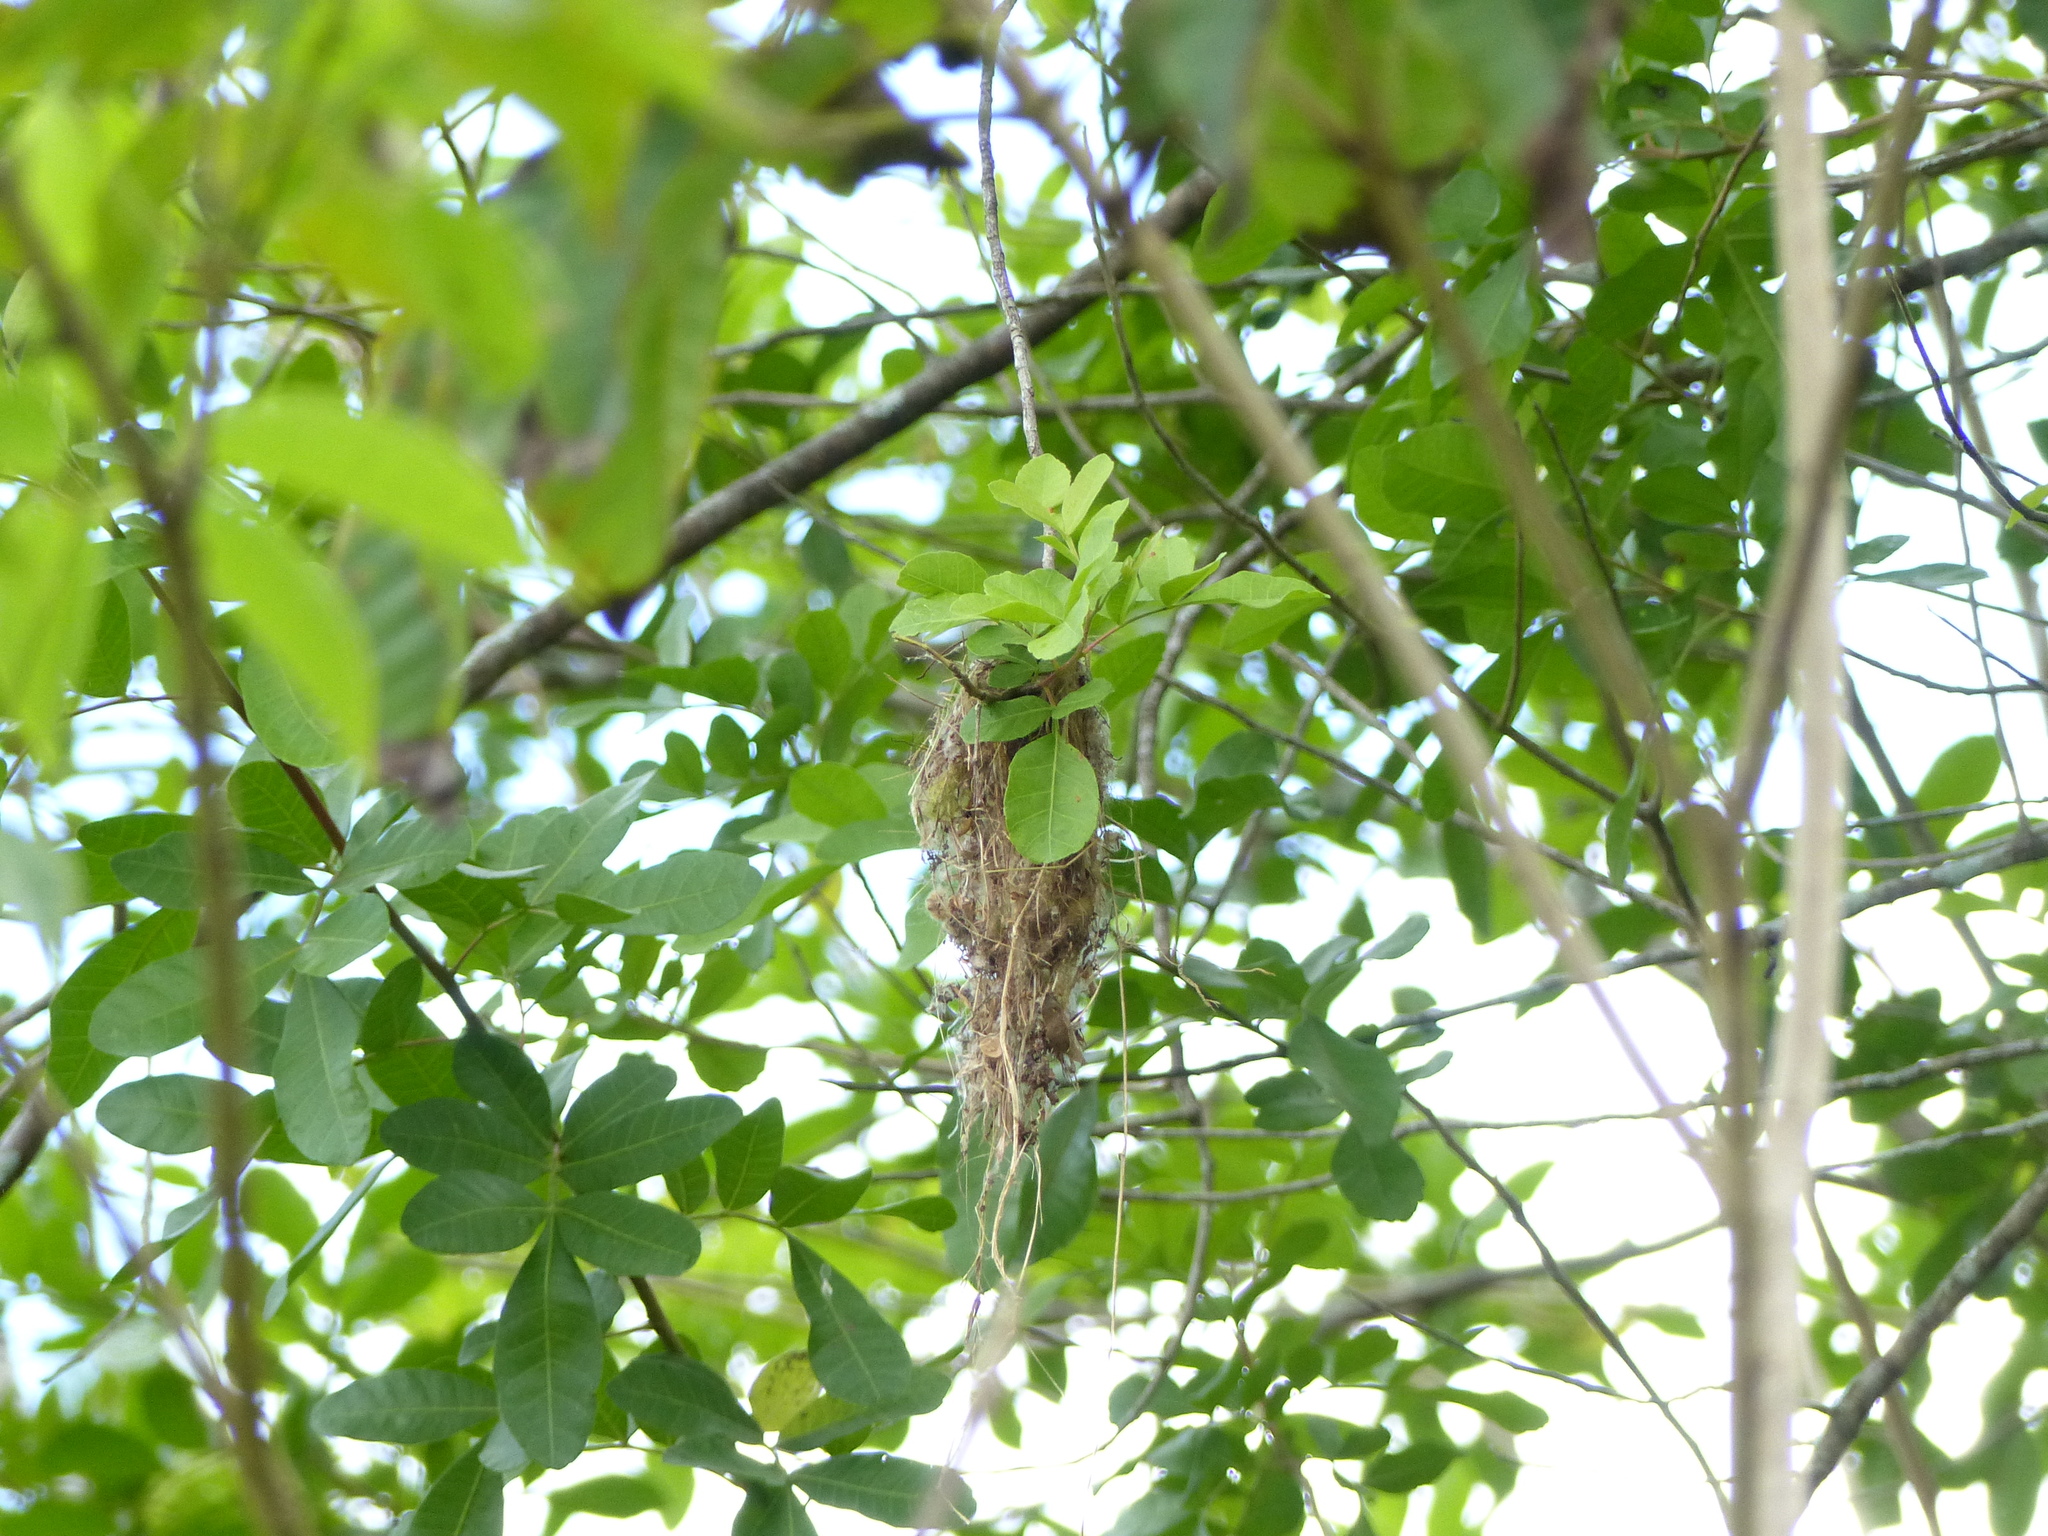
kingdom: Animalia
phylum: Chordata
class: Aves
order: Passeriformes
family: Tyrannidae
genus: Todirostrum
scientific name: Todirostrum cinereum
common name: Common tody-flycatcher
